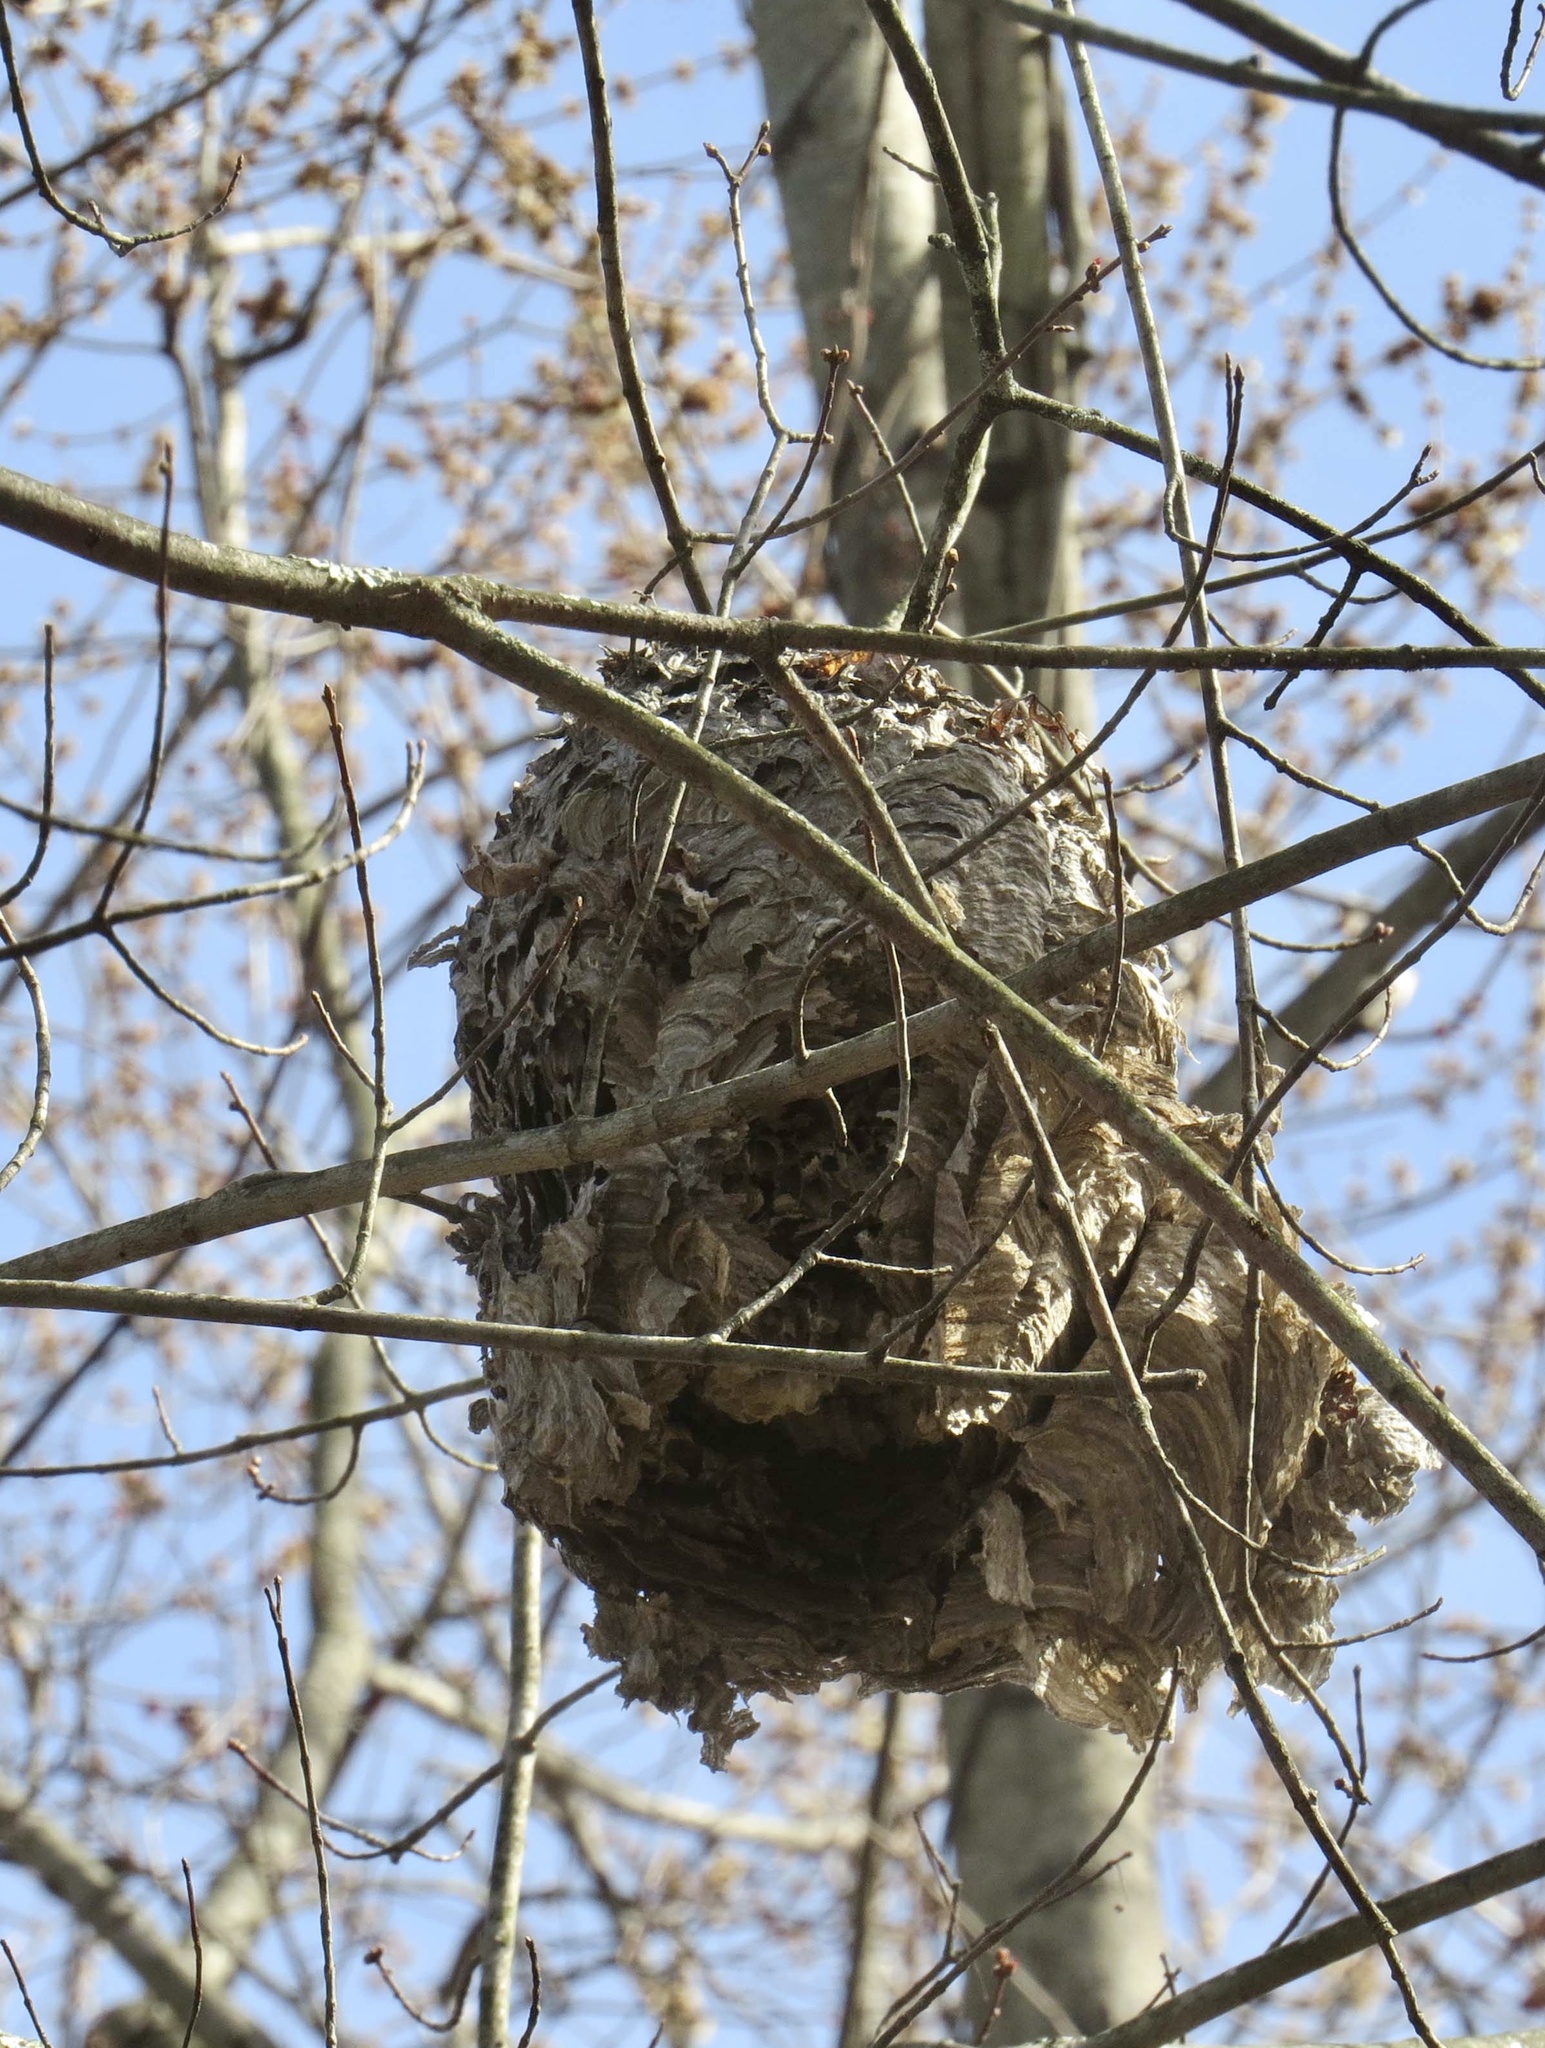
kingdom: Animalia
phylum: Arthropoda
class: Insecta
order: Hymenoptera
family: Vespidae
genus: Dolichovespula
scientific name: Dolichovespula maculata
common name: Bald-faced hornet
